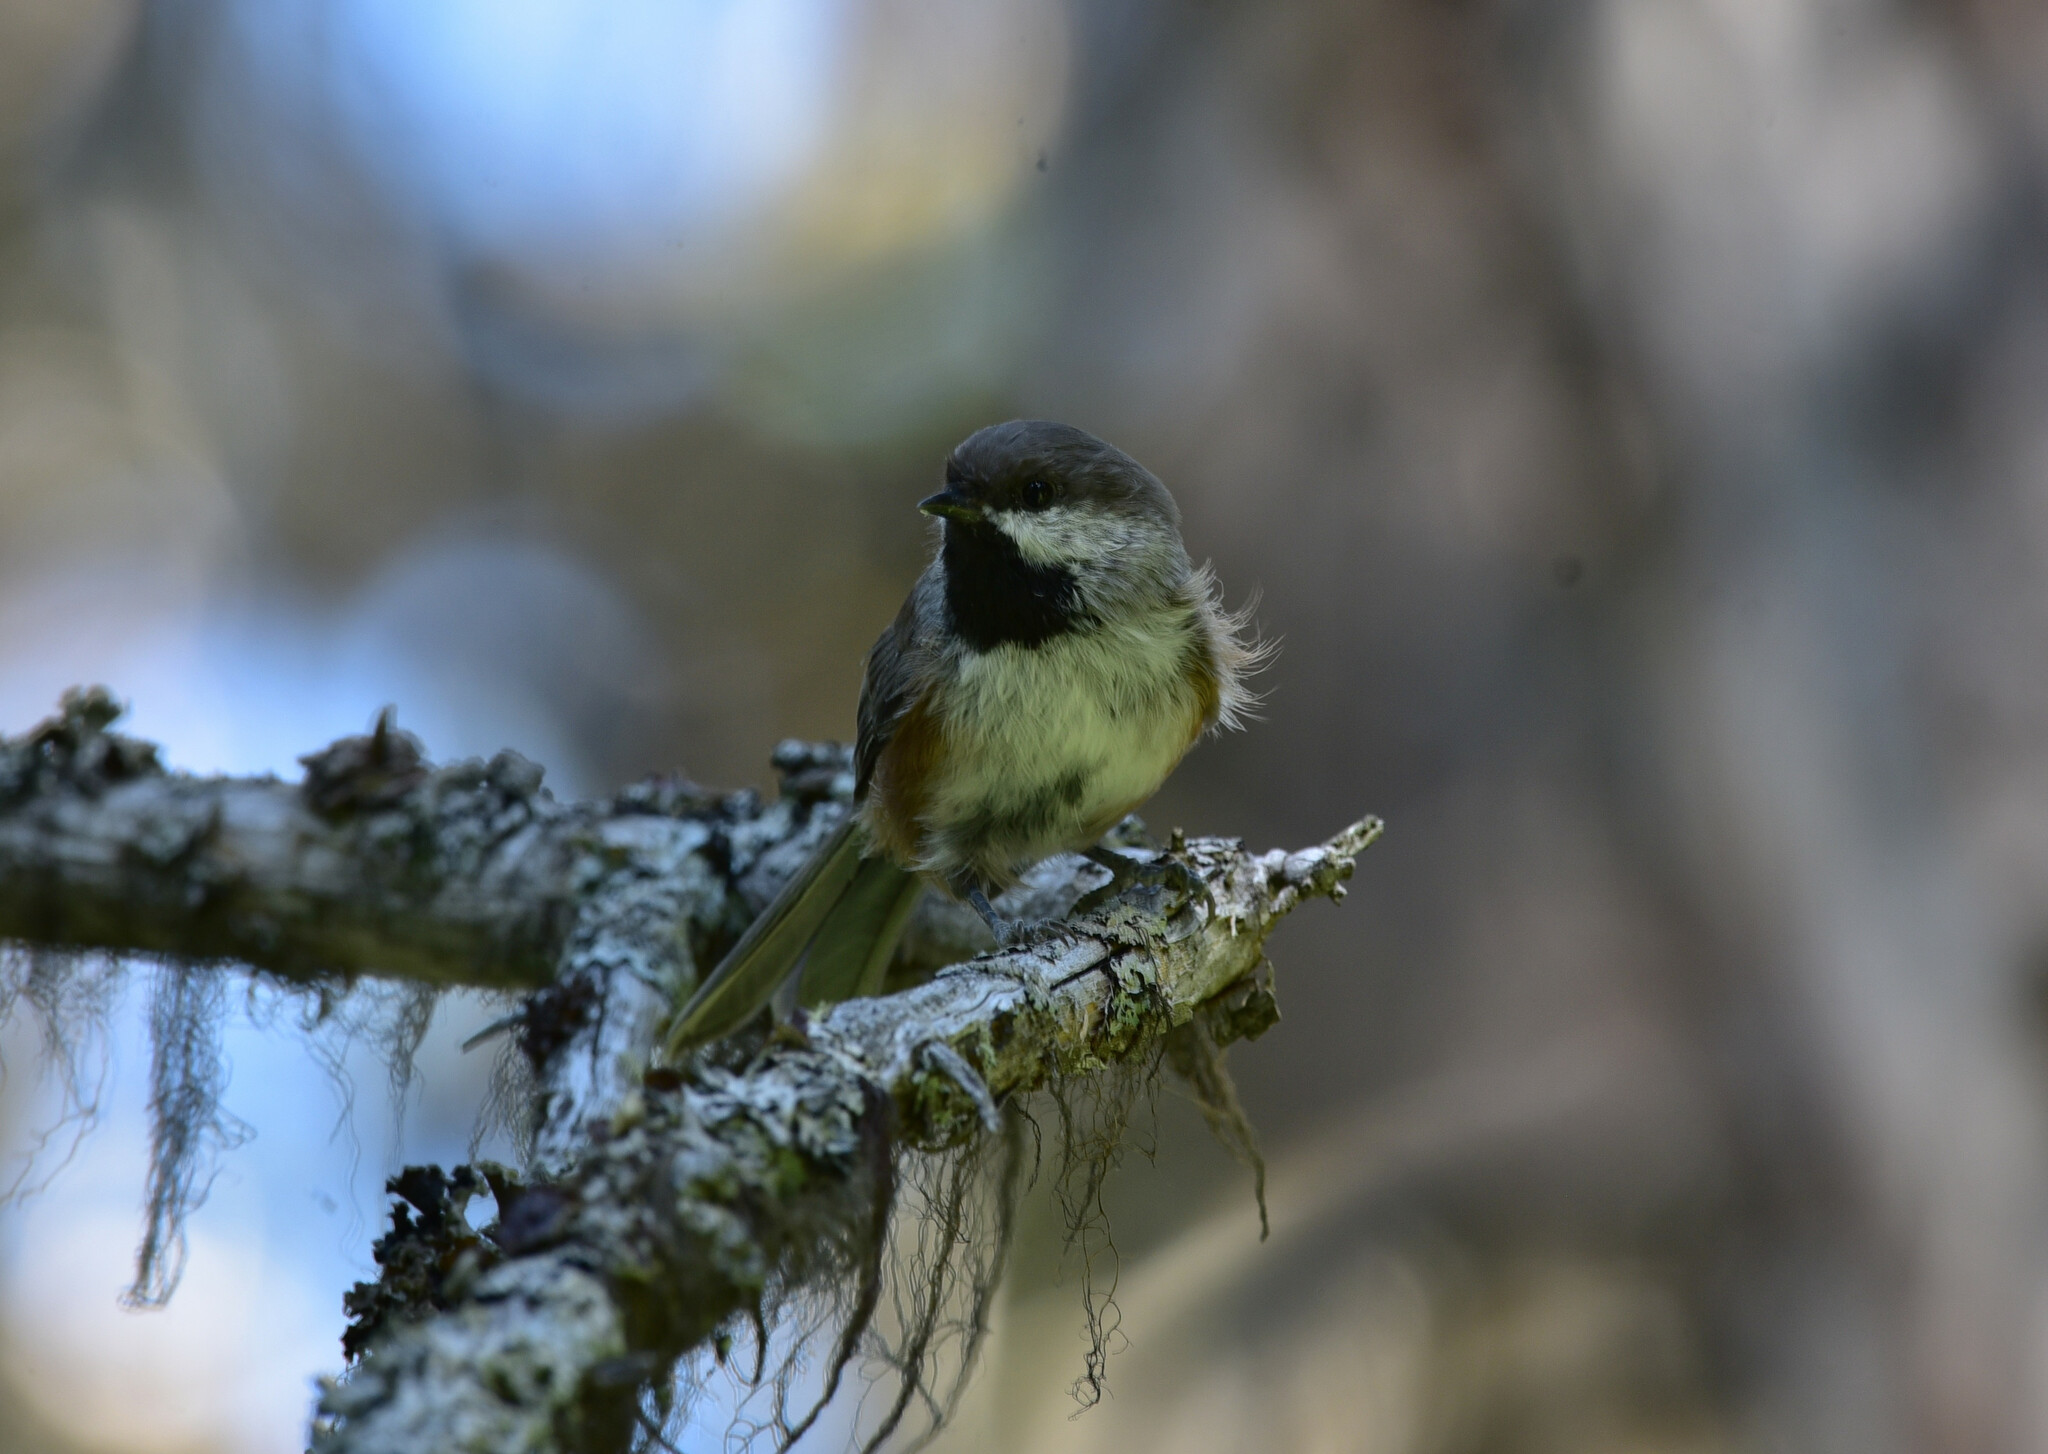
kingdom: Animalia
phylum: Chordata
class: Aves
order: Passeriformes
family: Paridae
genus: Poecile
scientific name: Poecile hudsonicus
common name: Boreal chickadee
